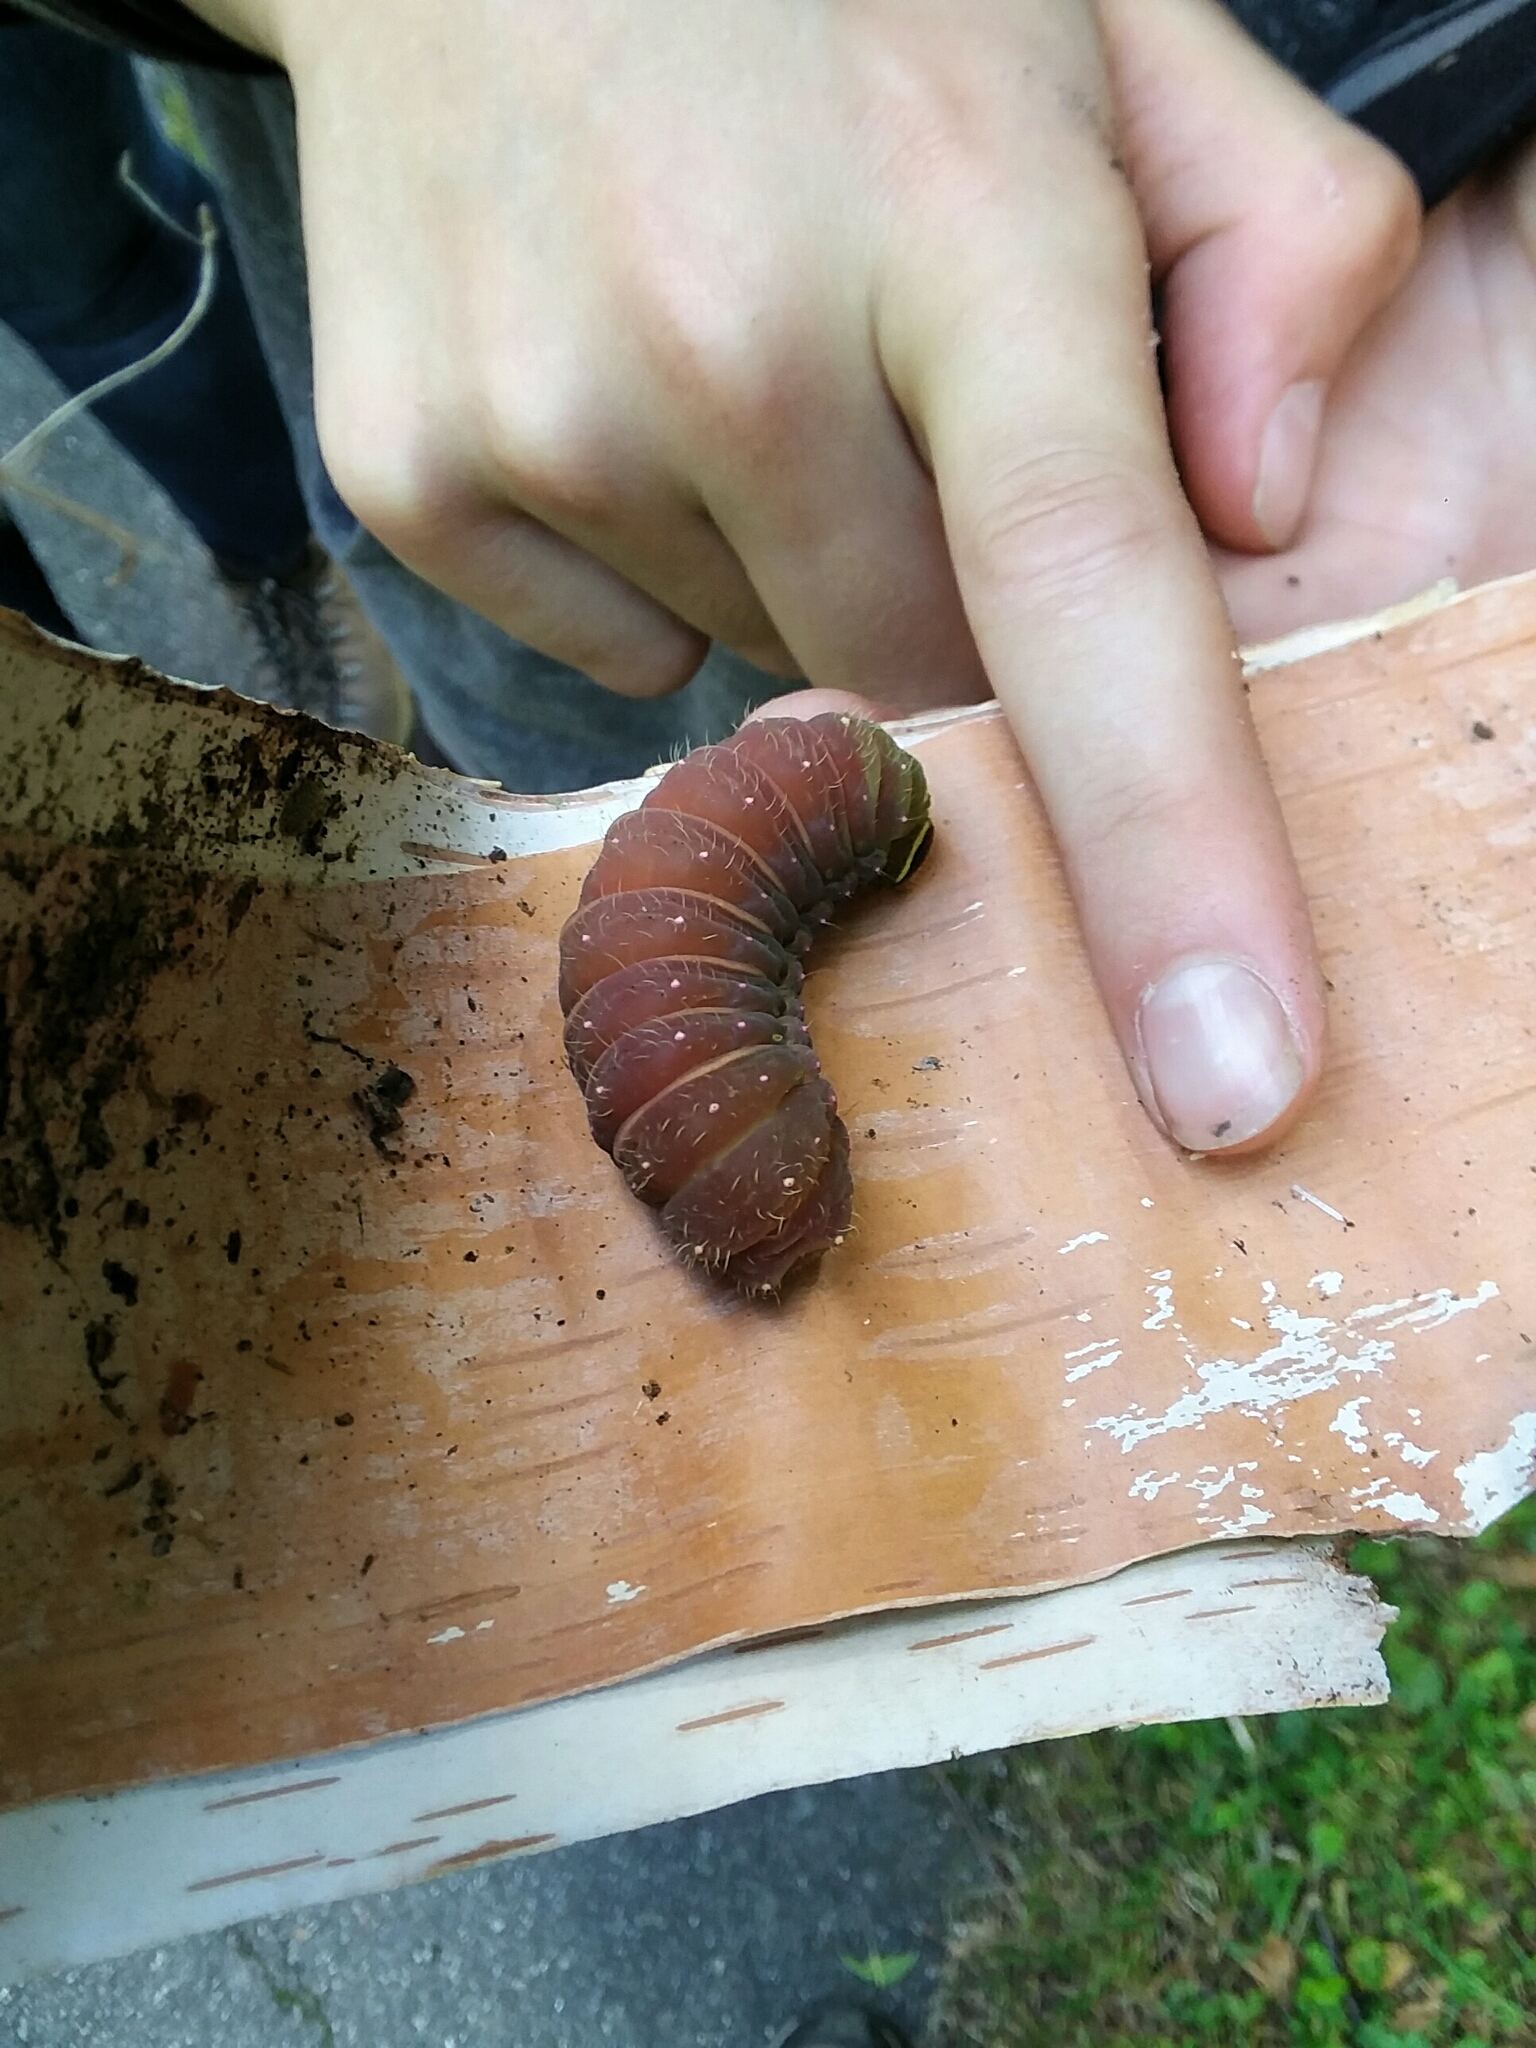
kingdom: Animalia
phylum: Arthropoda
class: Insecta
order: Lepidoptera
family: Saturniidae
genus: Actias
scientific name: Actias luna
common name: Luna moth
